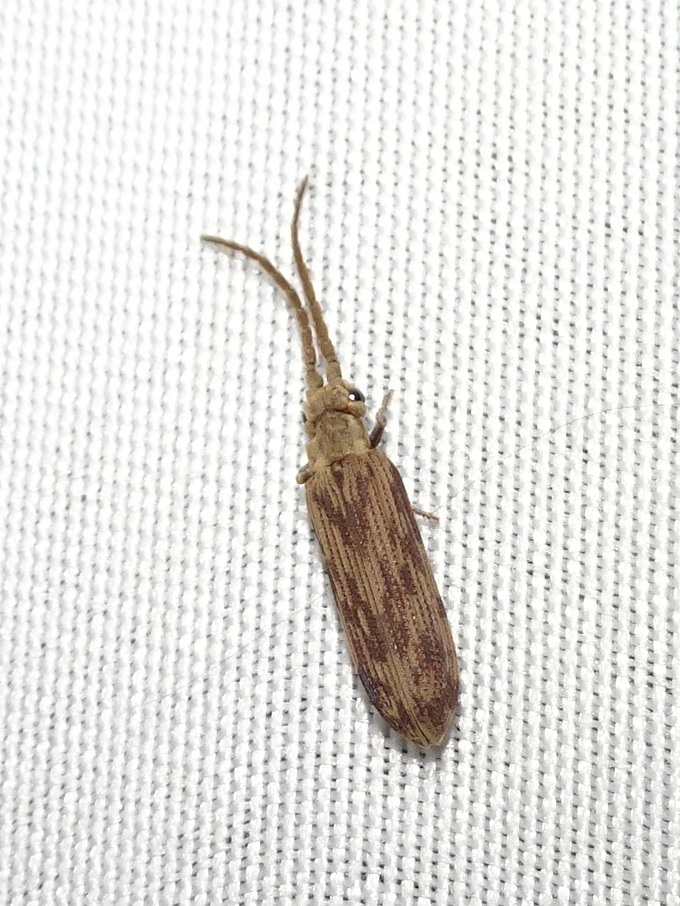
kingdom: Animalia
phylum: Arthropoda
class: Insecta
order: Coleoptera
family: Cupedidae
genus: Tenomerga
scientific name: Tenomerga cinerea
